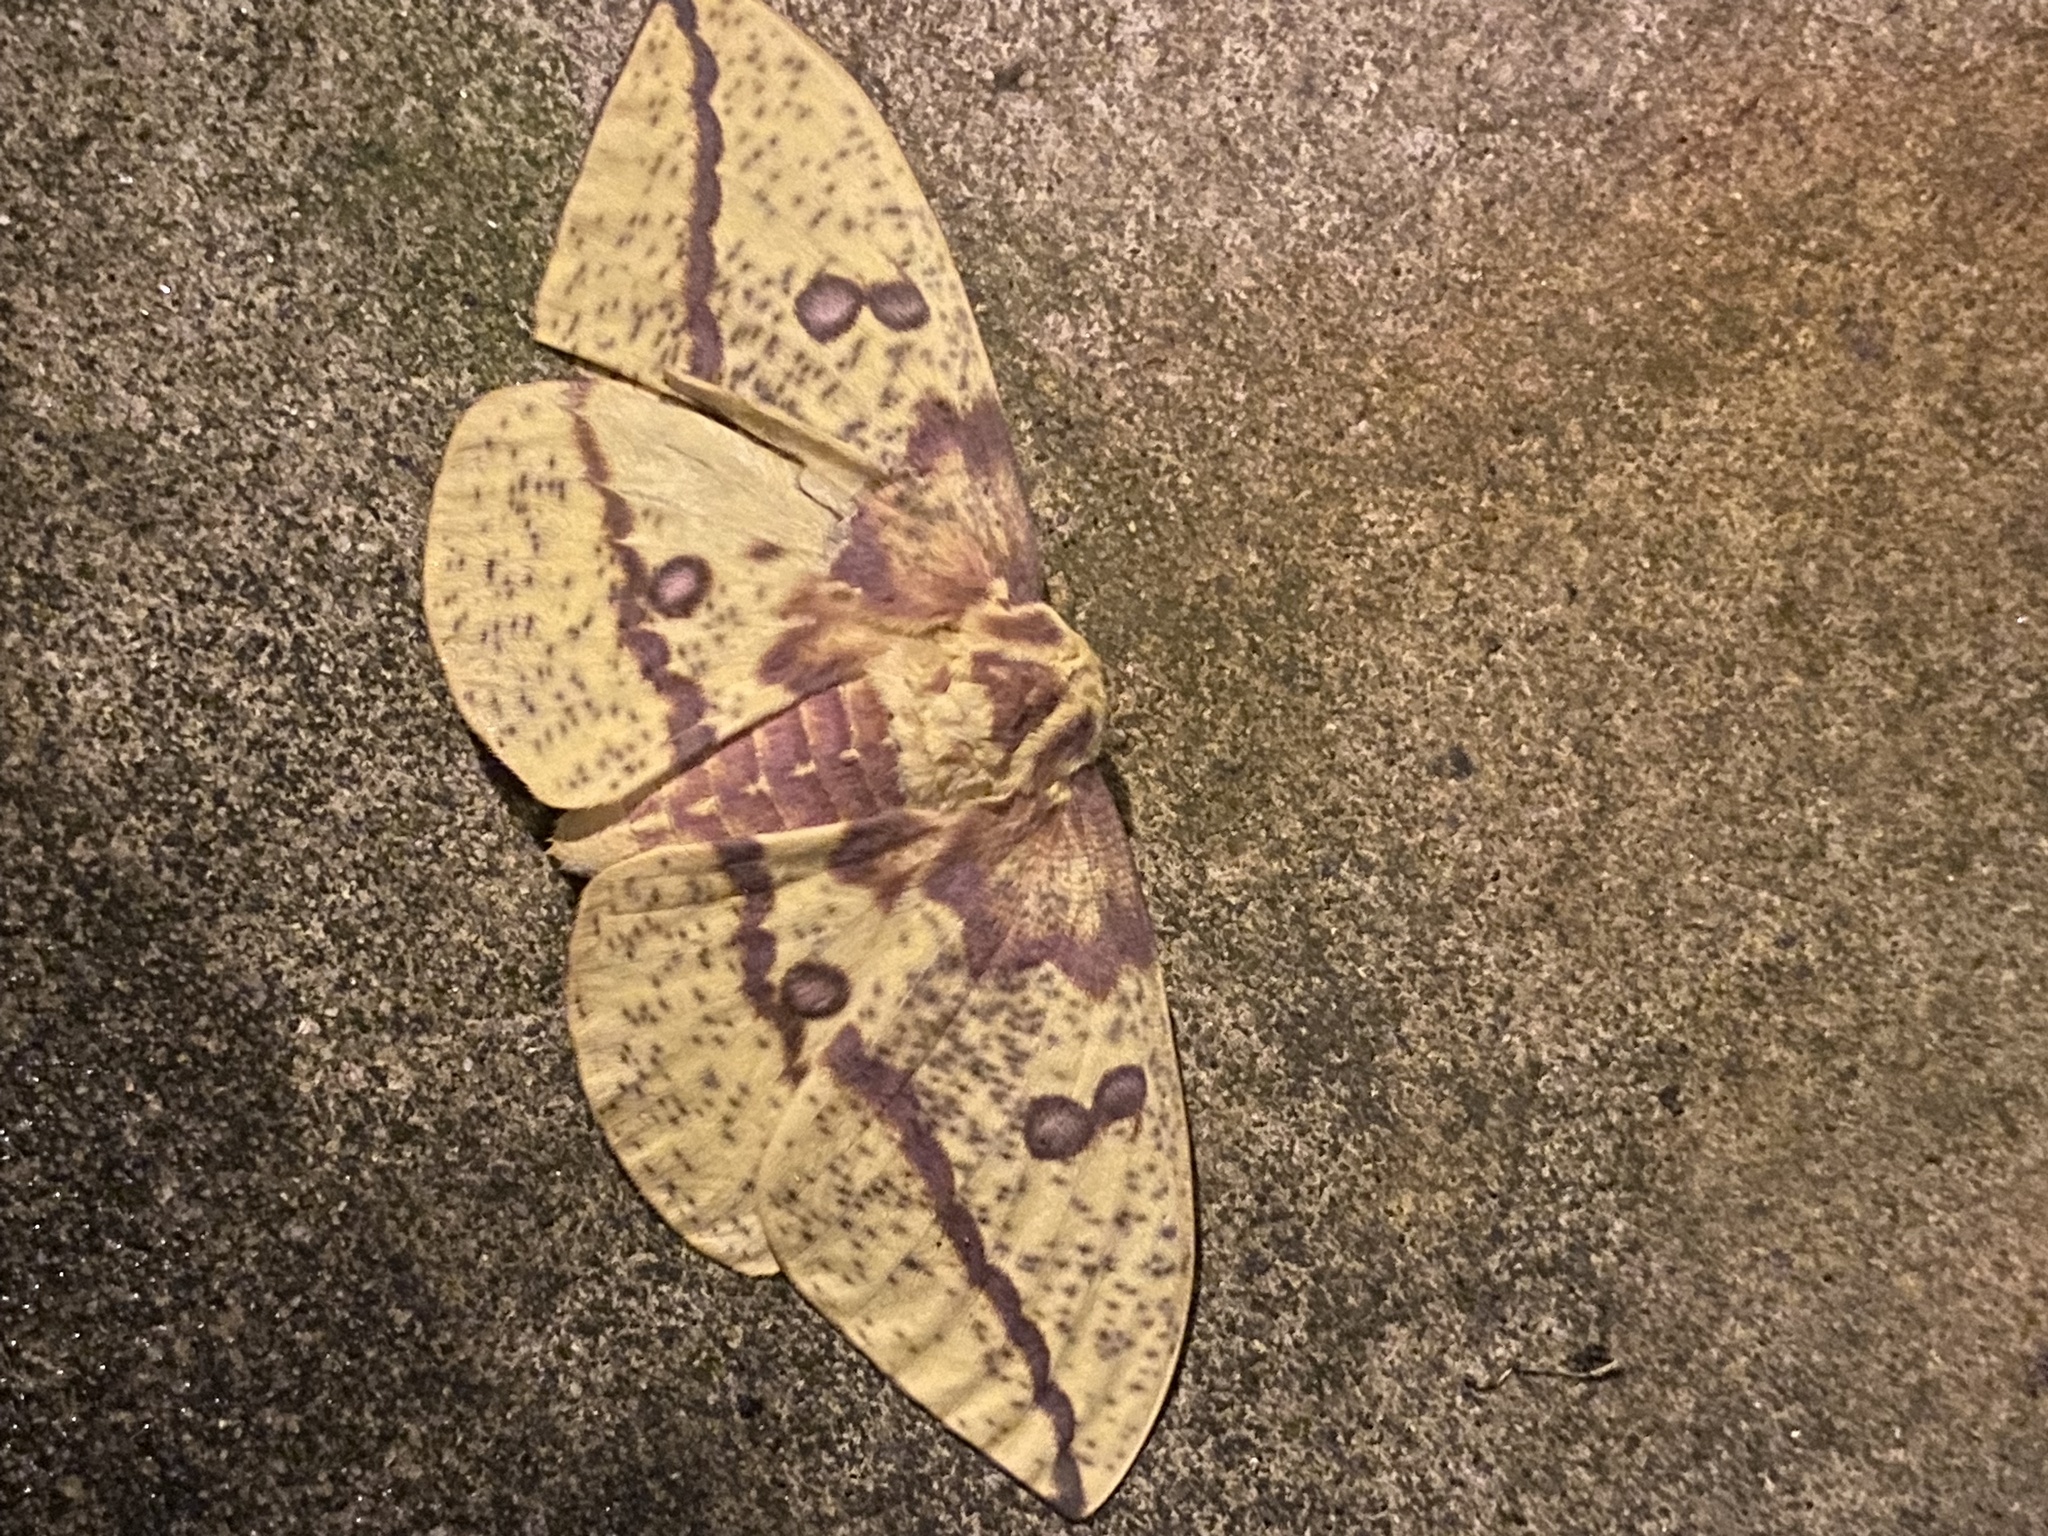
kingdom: Animalia
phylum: Arthropoda
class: Insecta
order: Lepidoptera
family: Saturniidae
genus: Eacles
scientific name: Eacles imperialis
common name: Imperial moth
